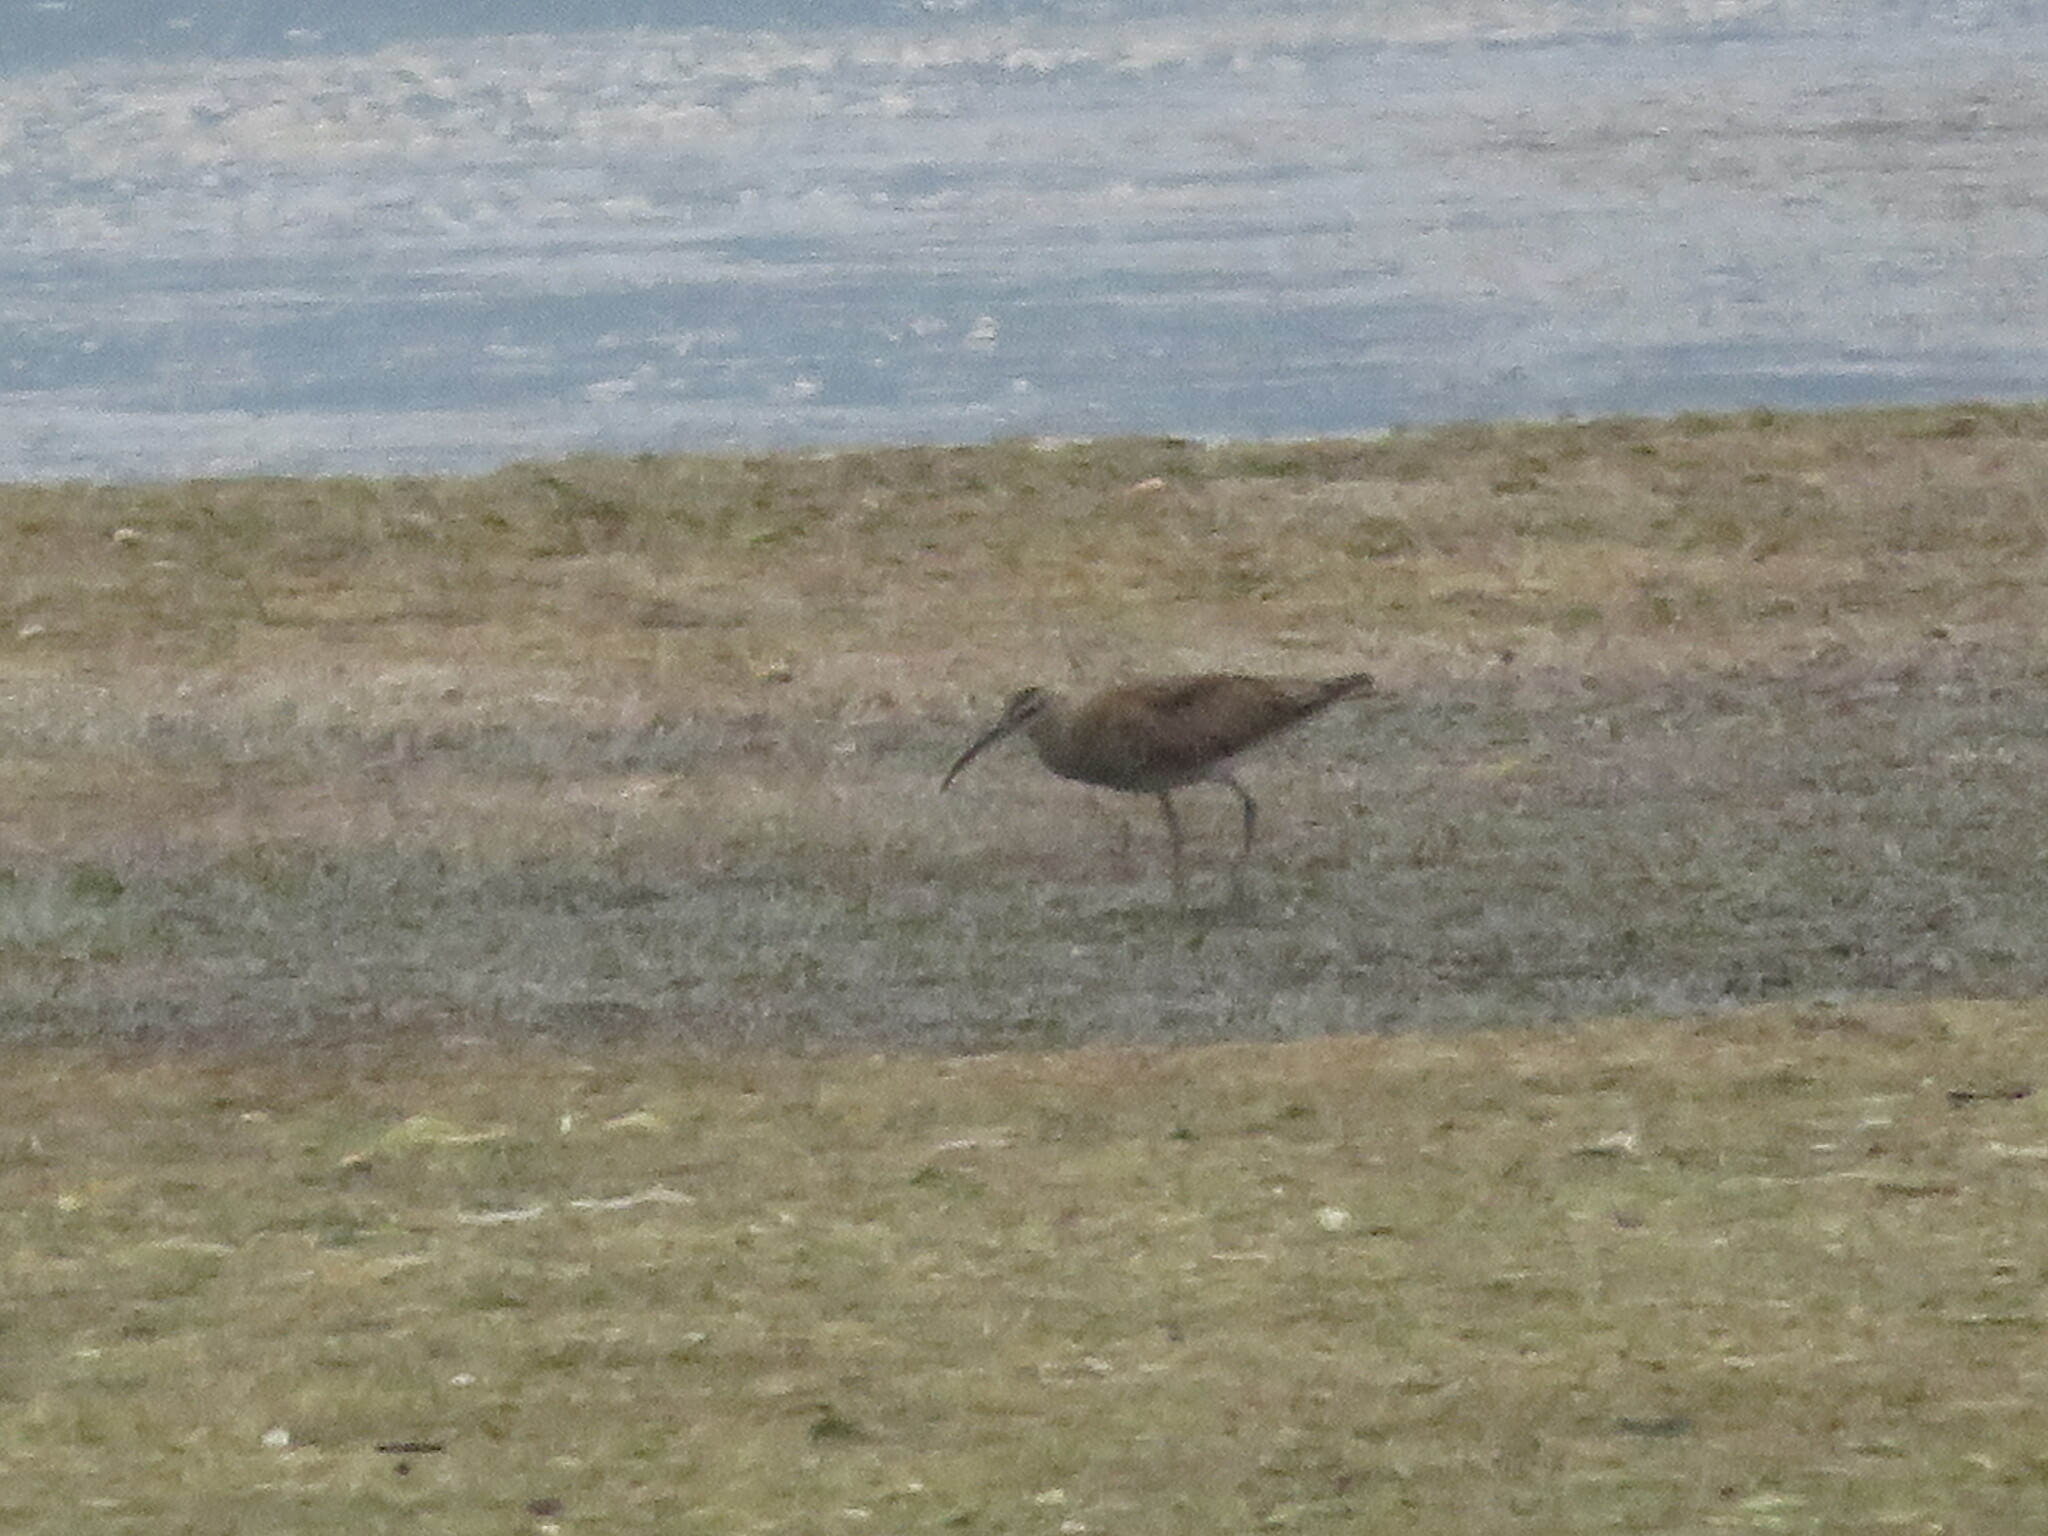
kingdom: Animalia
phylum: Chordata
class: Aves
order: Charadriiformes
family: Scolopacidae
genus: Numenius
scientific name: Numenius phaeopus
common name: Whimbrel
